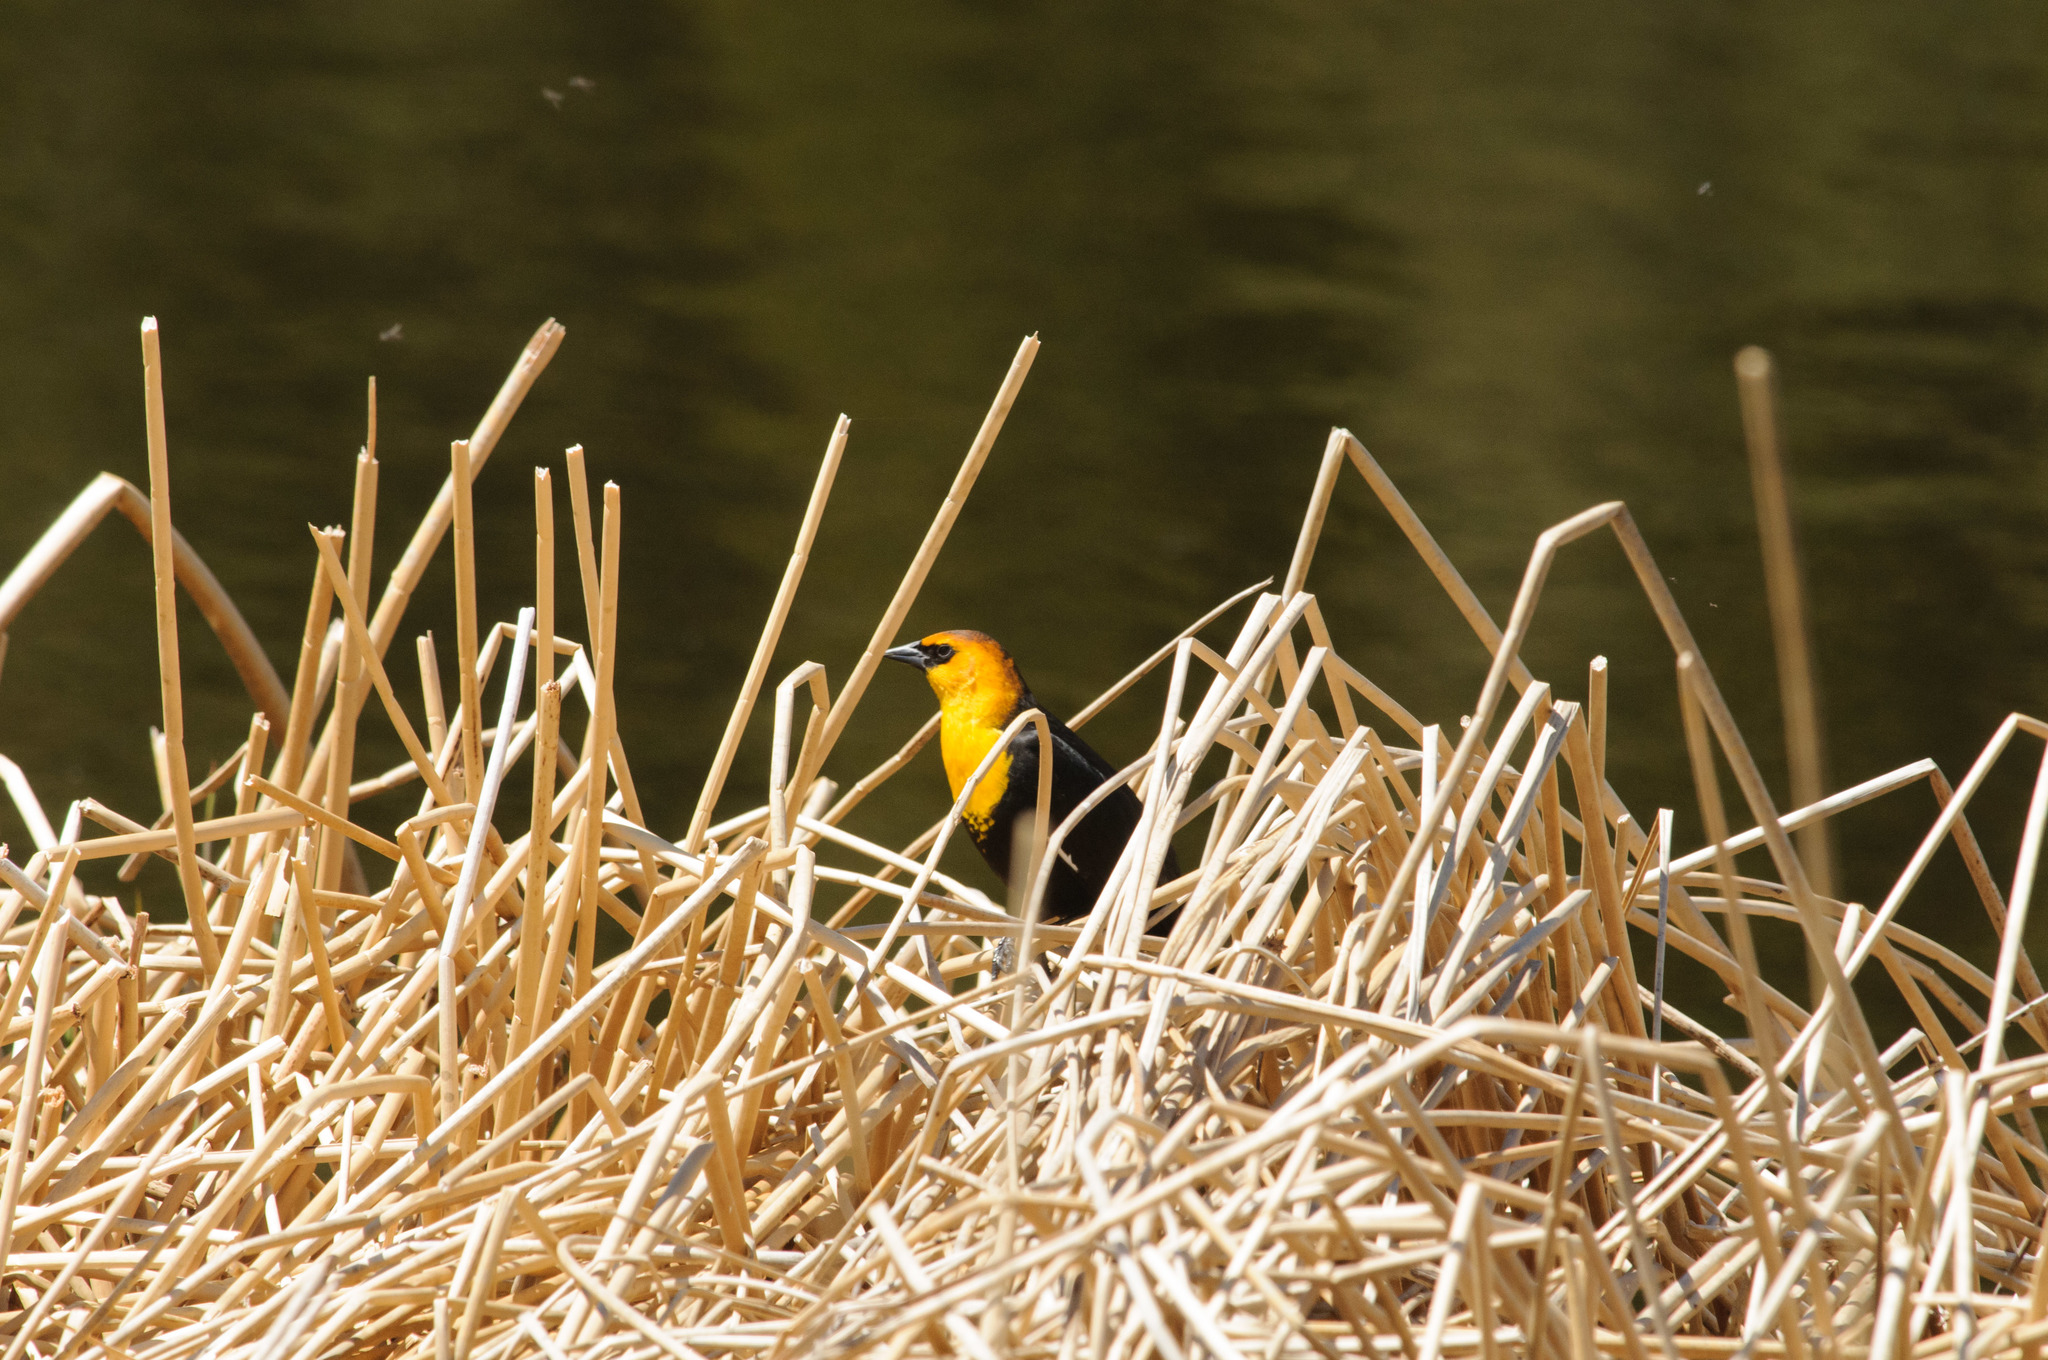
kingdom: Animalia
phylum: Chordata
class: Aves
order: Passeriformes
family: Icteridae
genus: Xanthocephalus
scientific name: Xanthocephalus xanthocephalus
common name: Yellow-headed blackbird
